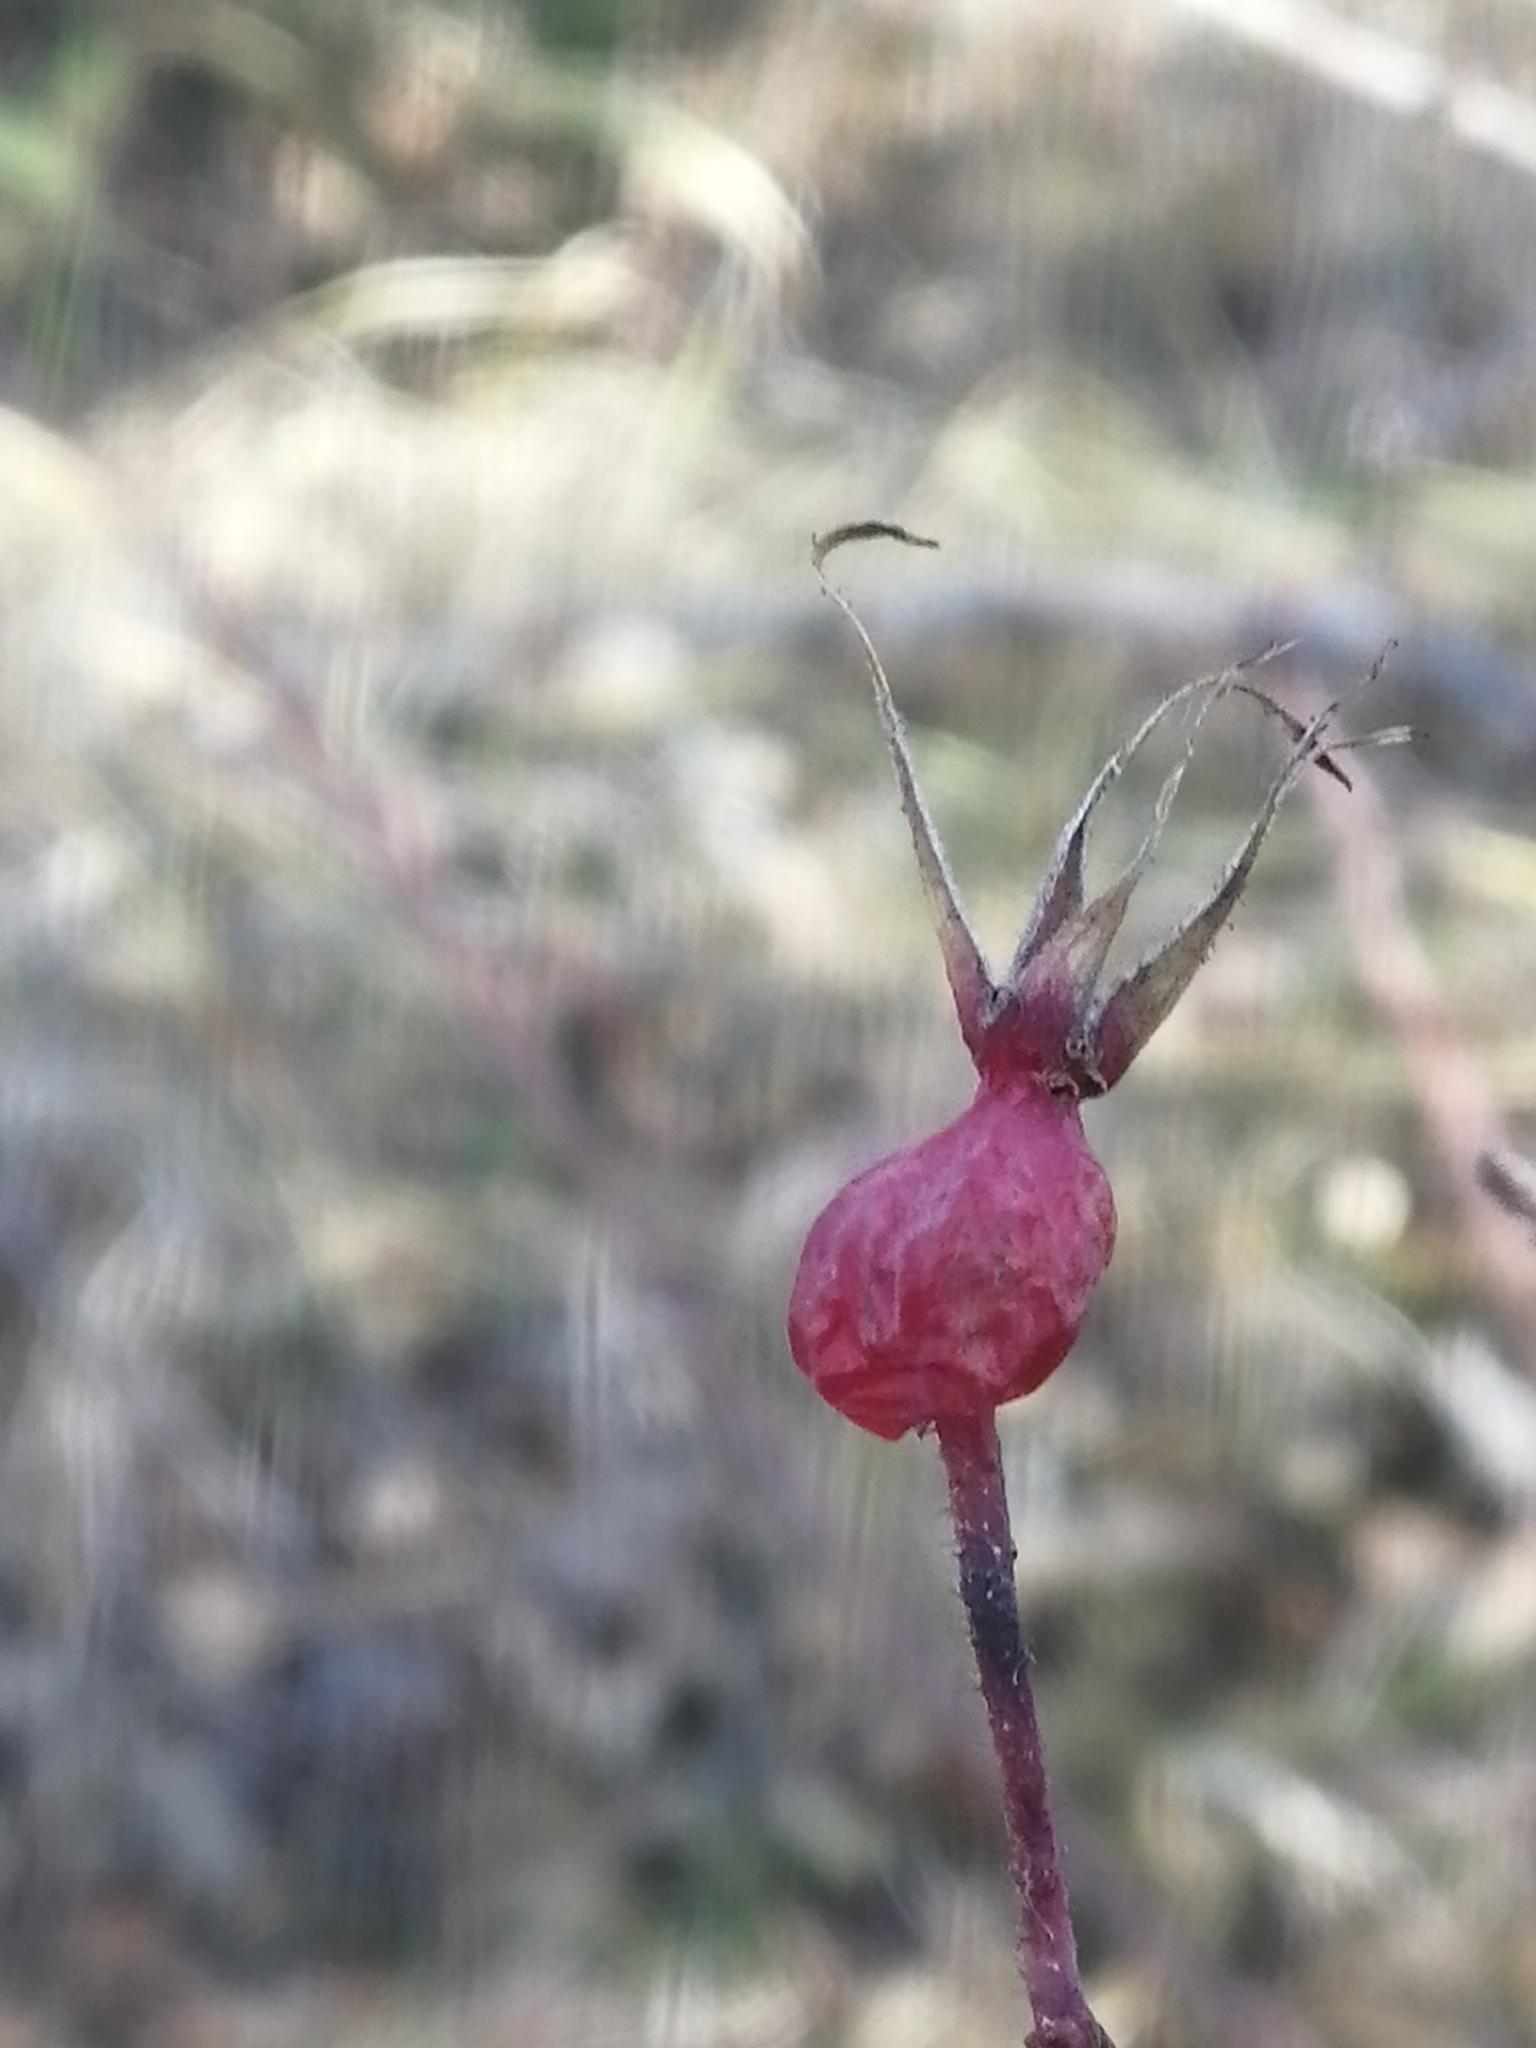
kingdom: Plantae
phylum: Tracheophyta
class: Magnoliopsida
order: Rosales
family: Rosaceae
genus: Rosa
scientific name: Rosa acicularis
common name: Prickly rose
